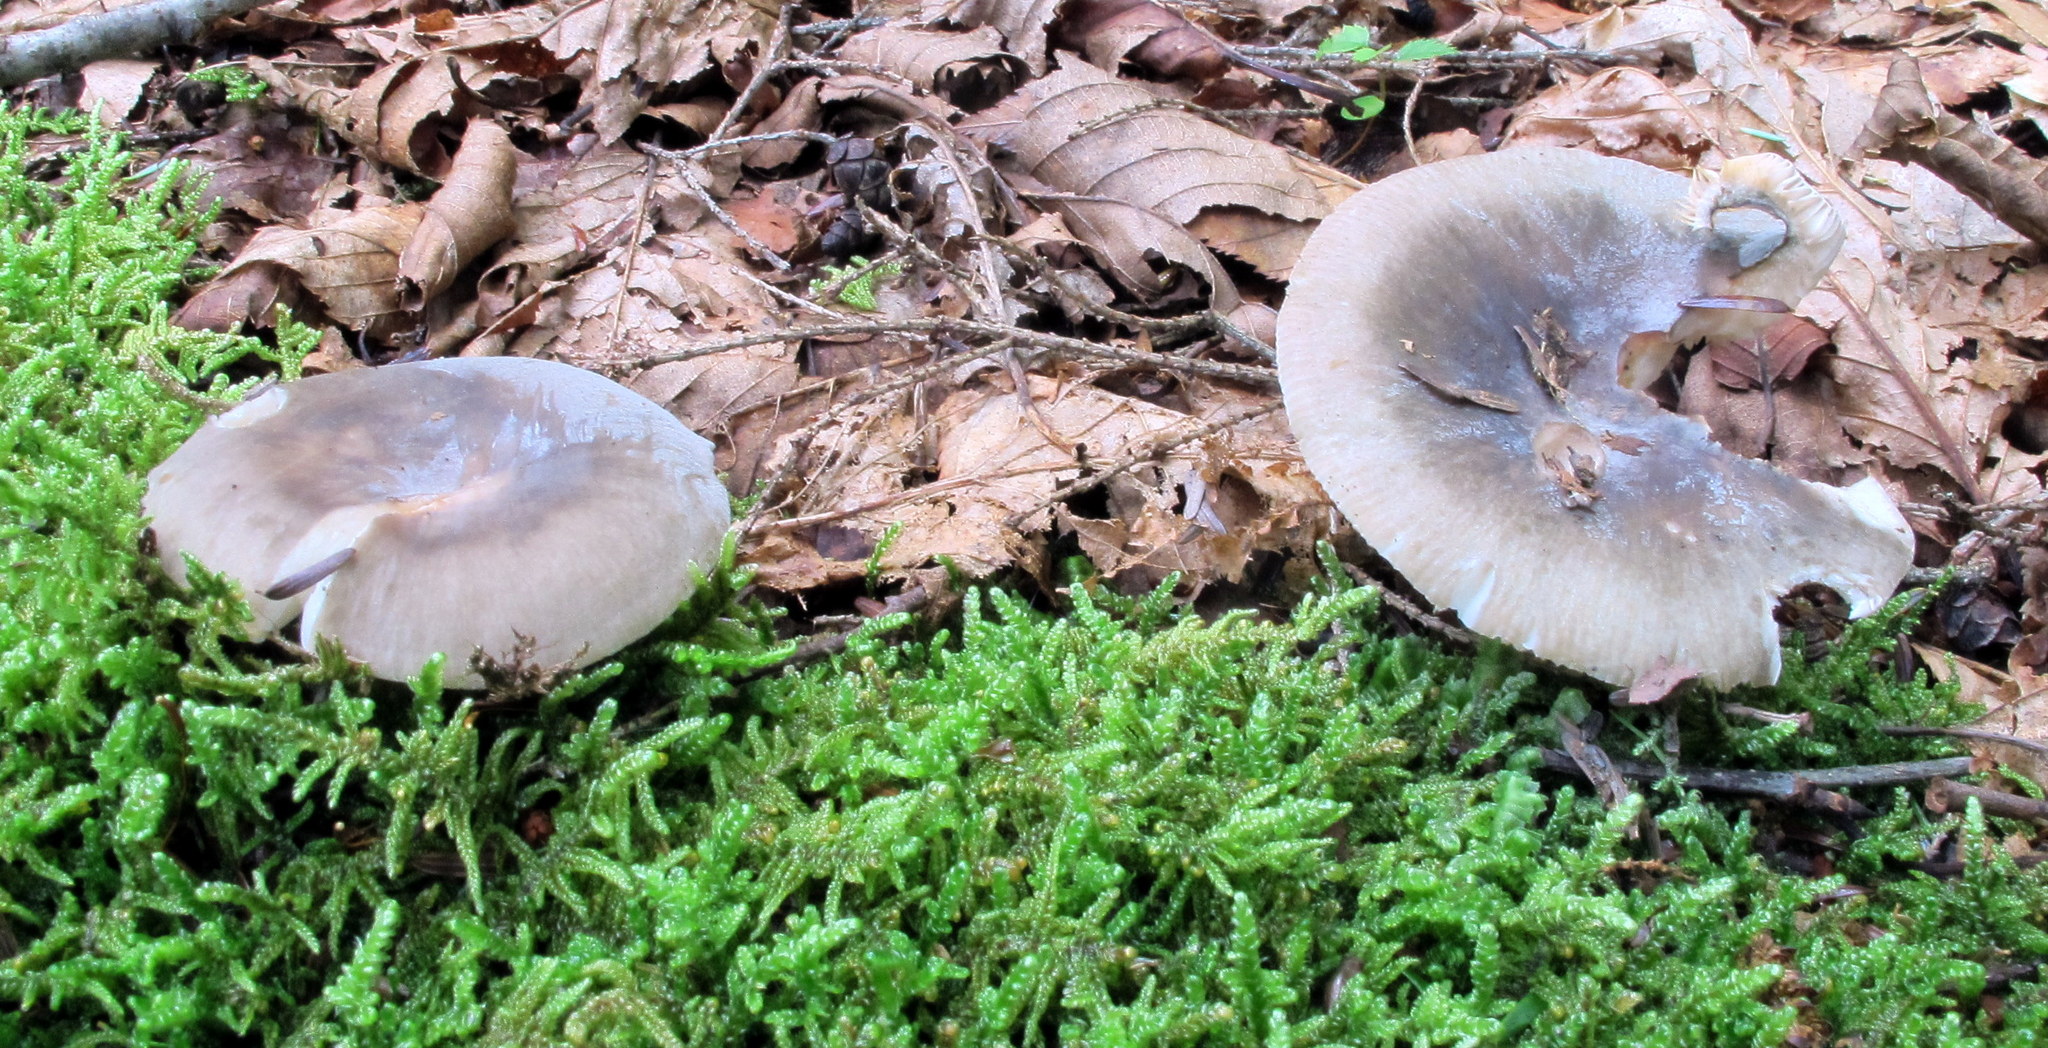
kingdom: Fungi
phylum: Basidiomycota
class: Agaricomycetes
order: Russulales
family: Russulaceae
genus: Russula
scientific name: Russula modesta
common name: Modest russula
